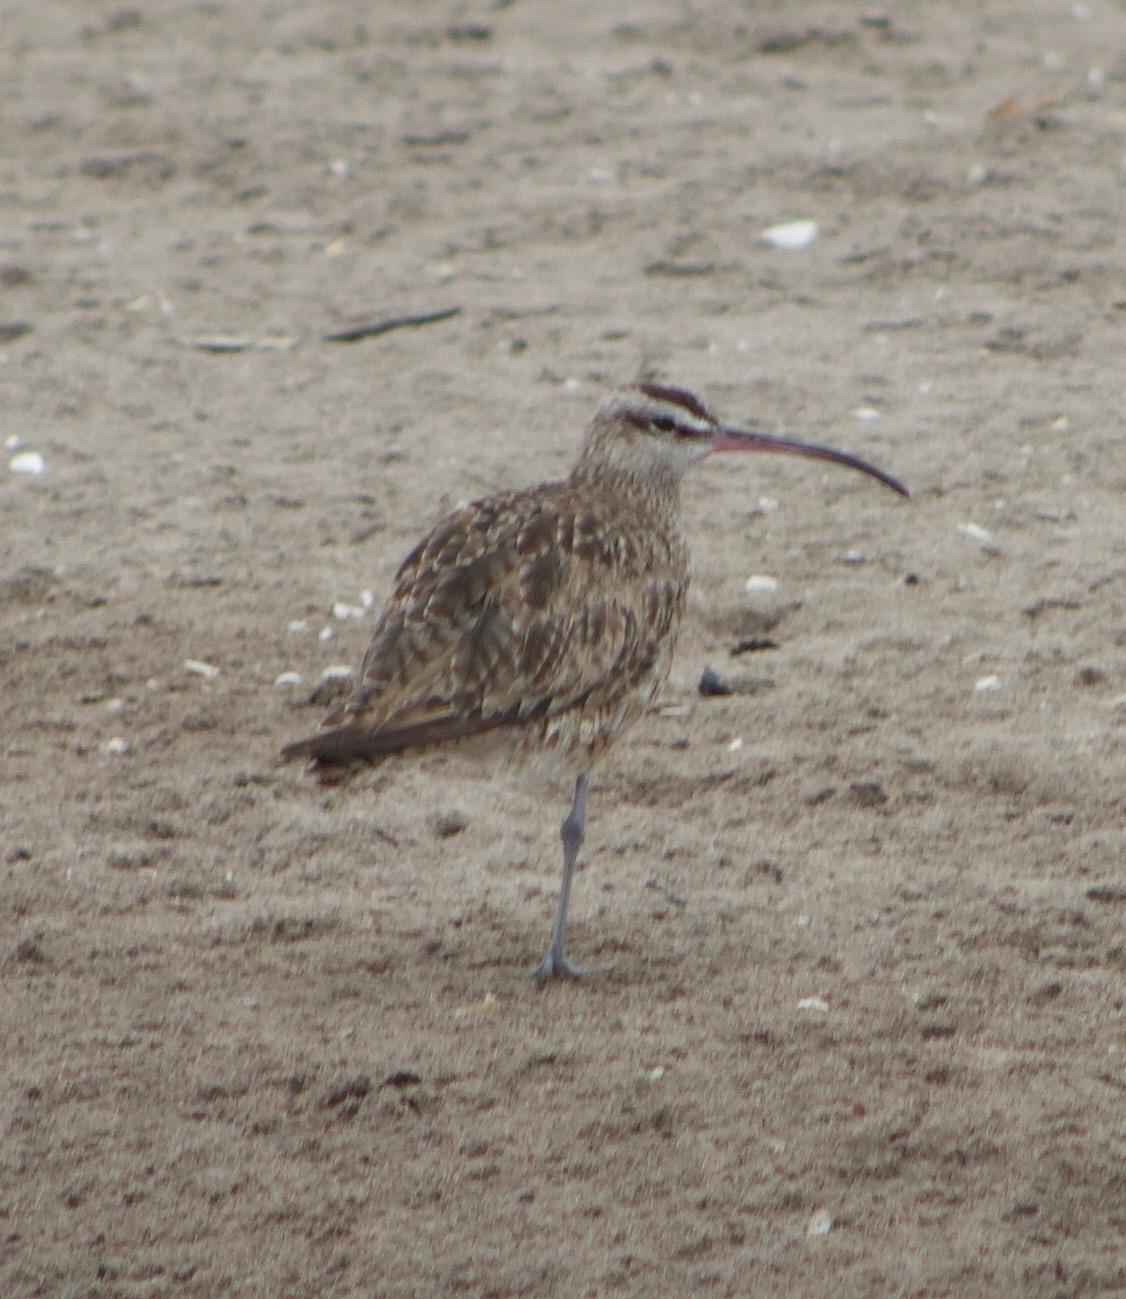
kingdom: Animalia
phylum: Chordata
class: Aves
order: Charadriiformes
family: Scolopacidae
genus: Numenius
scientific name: Numenius phaeopus
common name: Whimbrel
